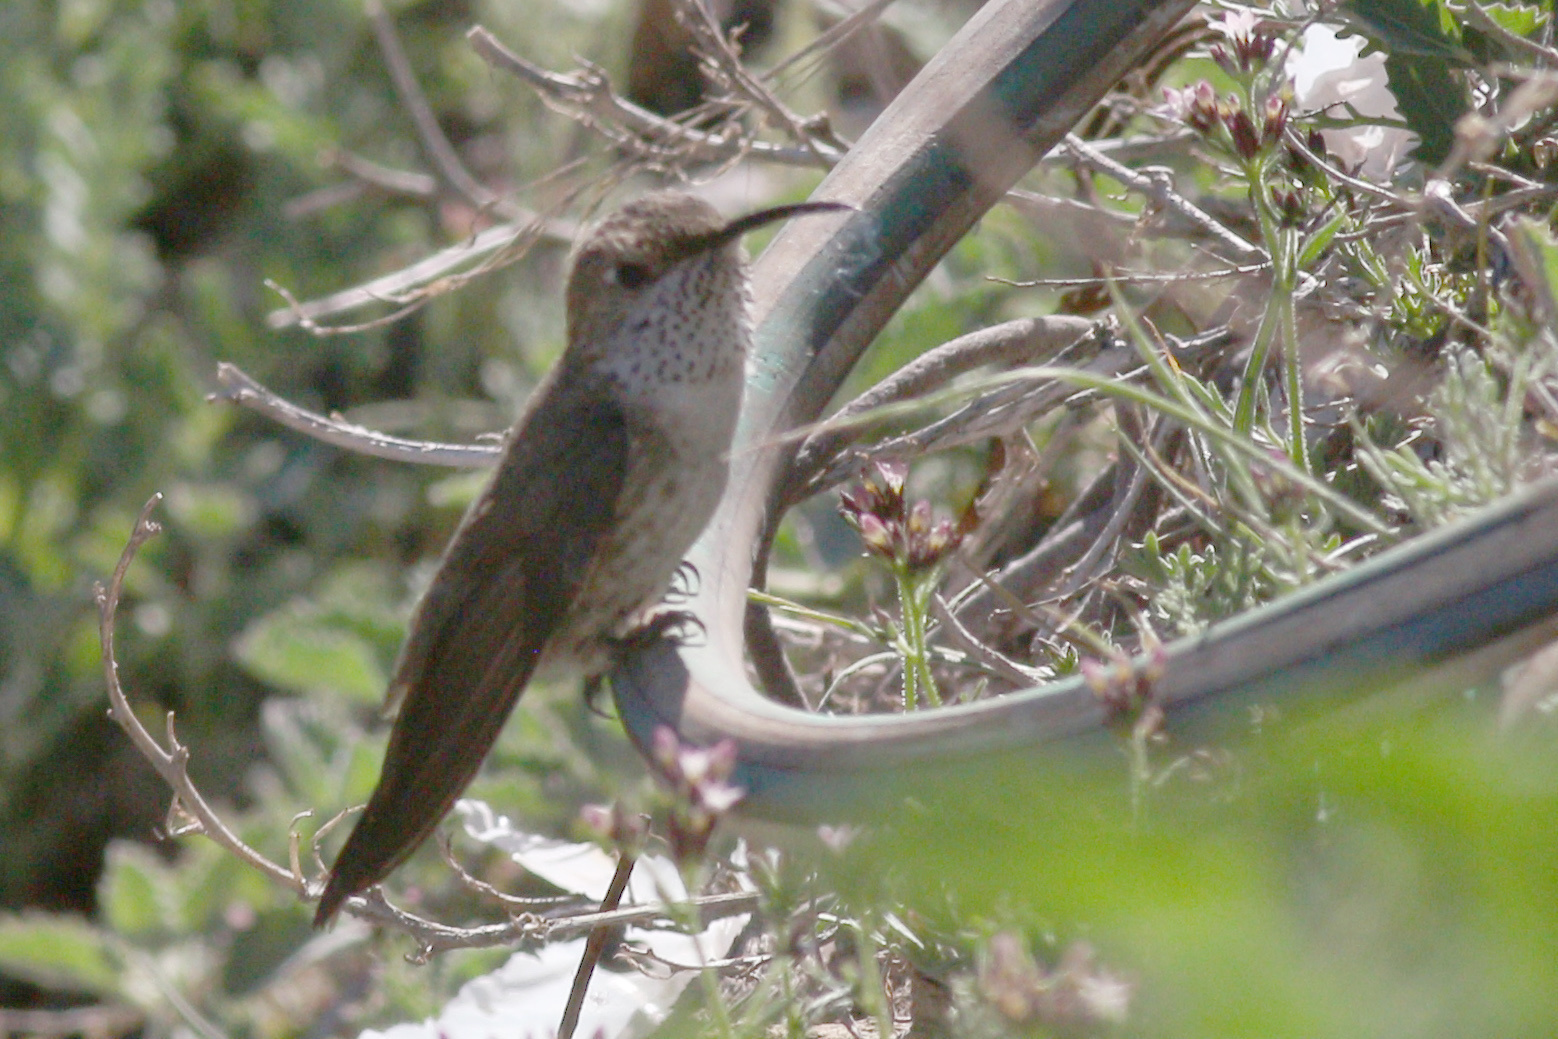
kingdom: Animalia
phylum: Chordata
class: Aves
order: Apodiformes
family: Trochilidae
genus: Oreotrochilus
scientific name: Oreotrochilus leucopleurus
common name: White-sided hillstar
